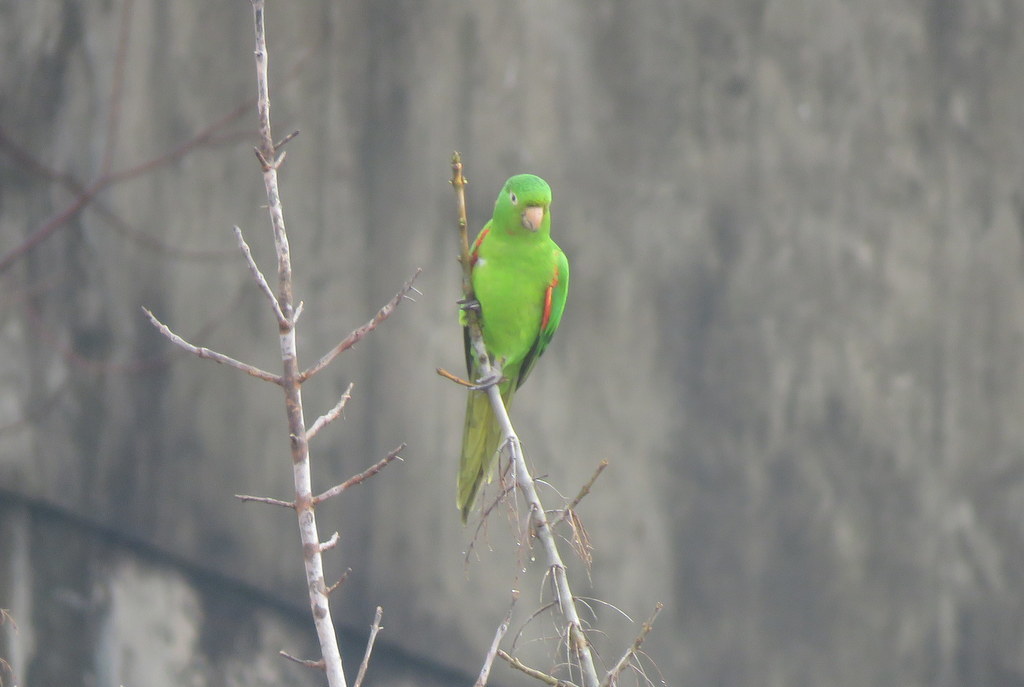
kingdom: Animalia
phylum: Chordata
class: Aves
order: Psittaciformes
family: Psittacidae
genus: Aratinga
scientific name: Aratinga leucophthalma
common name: White-eyed parakeet
